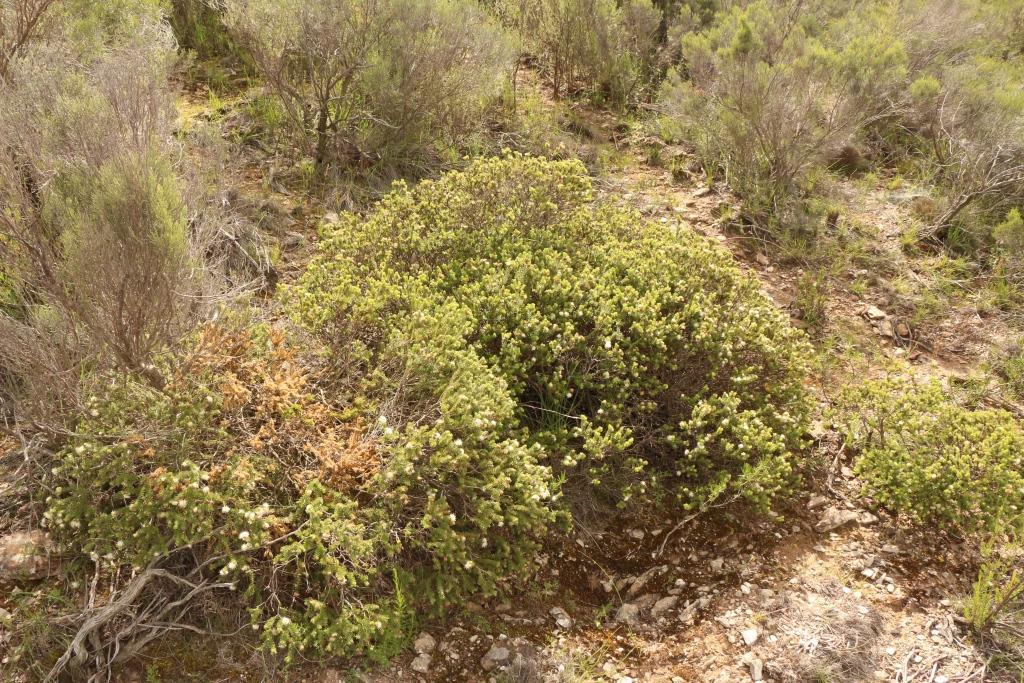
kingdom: Plantae
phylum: Tracheophyta
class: Magnoliopsida
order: Sapindales
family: Rutaceae
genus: Agathosma
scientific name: Agathosma
